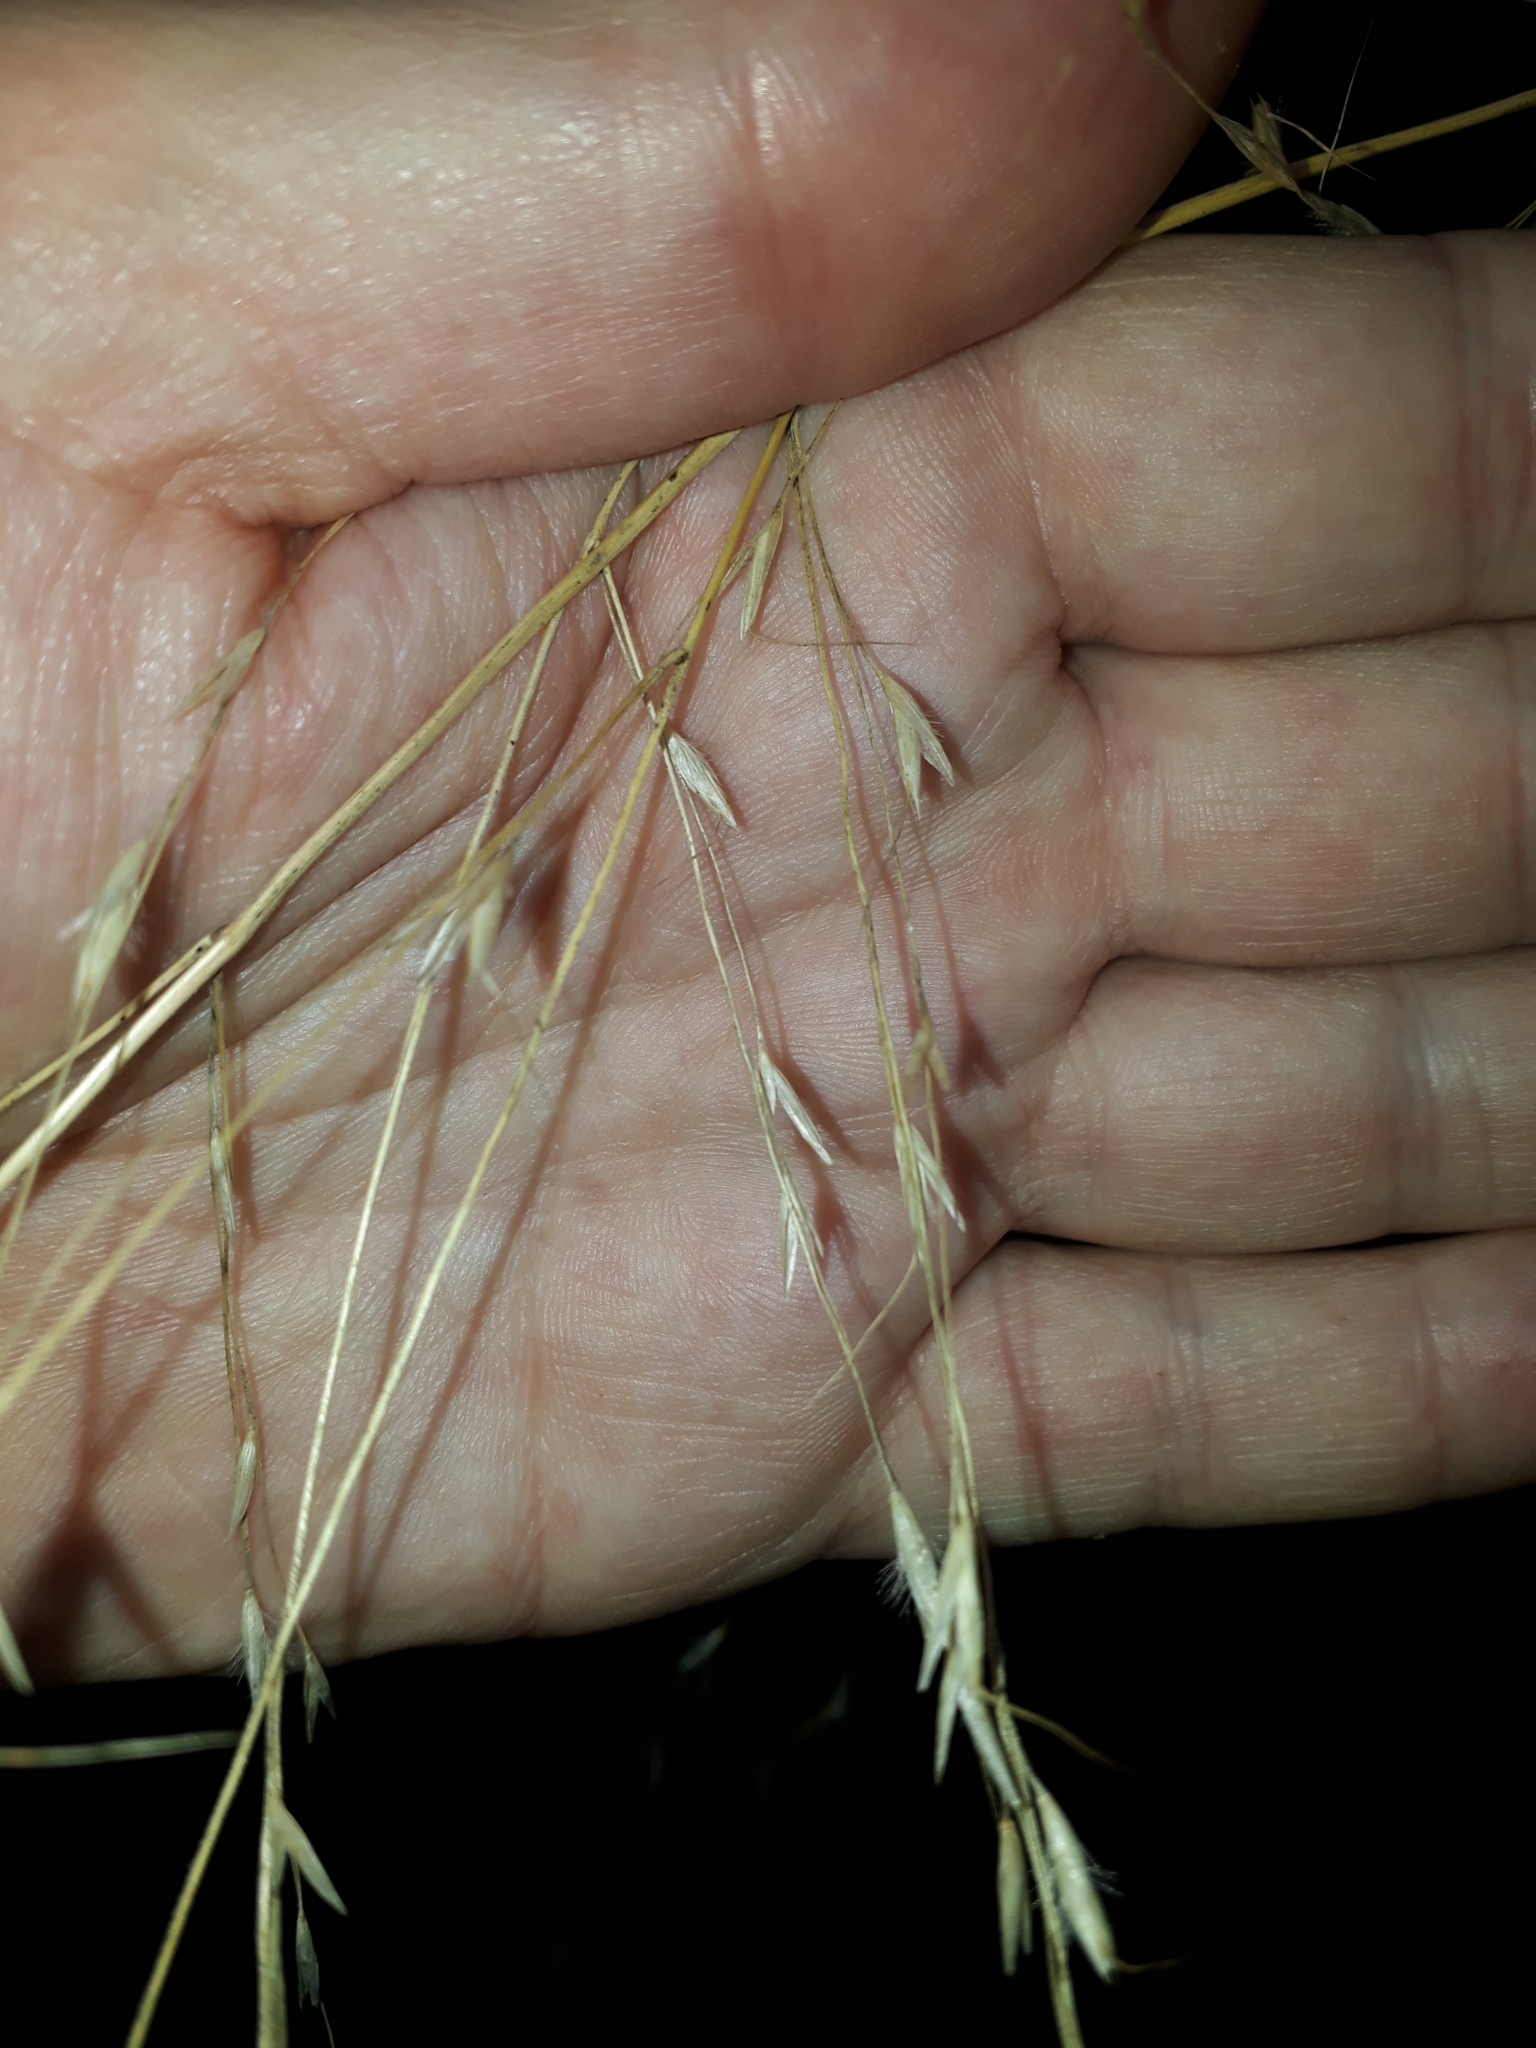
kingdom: Plantae
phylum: Tracheophyta
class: Liliopsida
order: Poales
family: Poaceae
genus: Chionochloa
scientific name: Chionochloa conspicua
